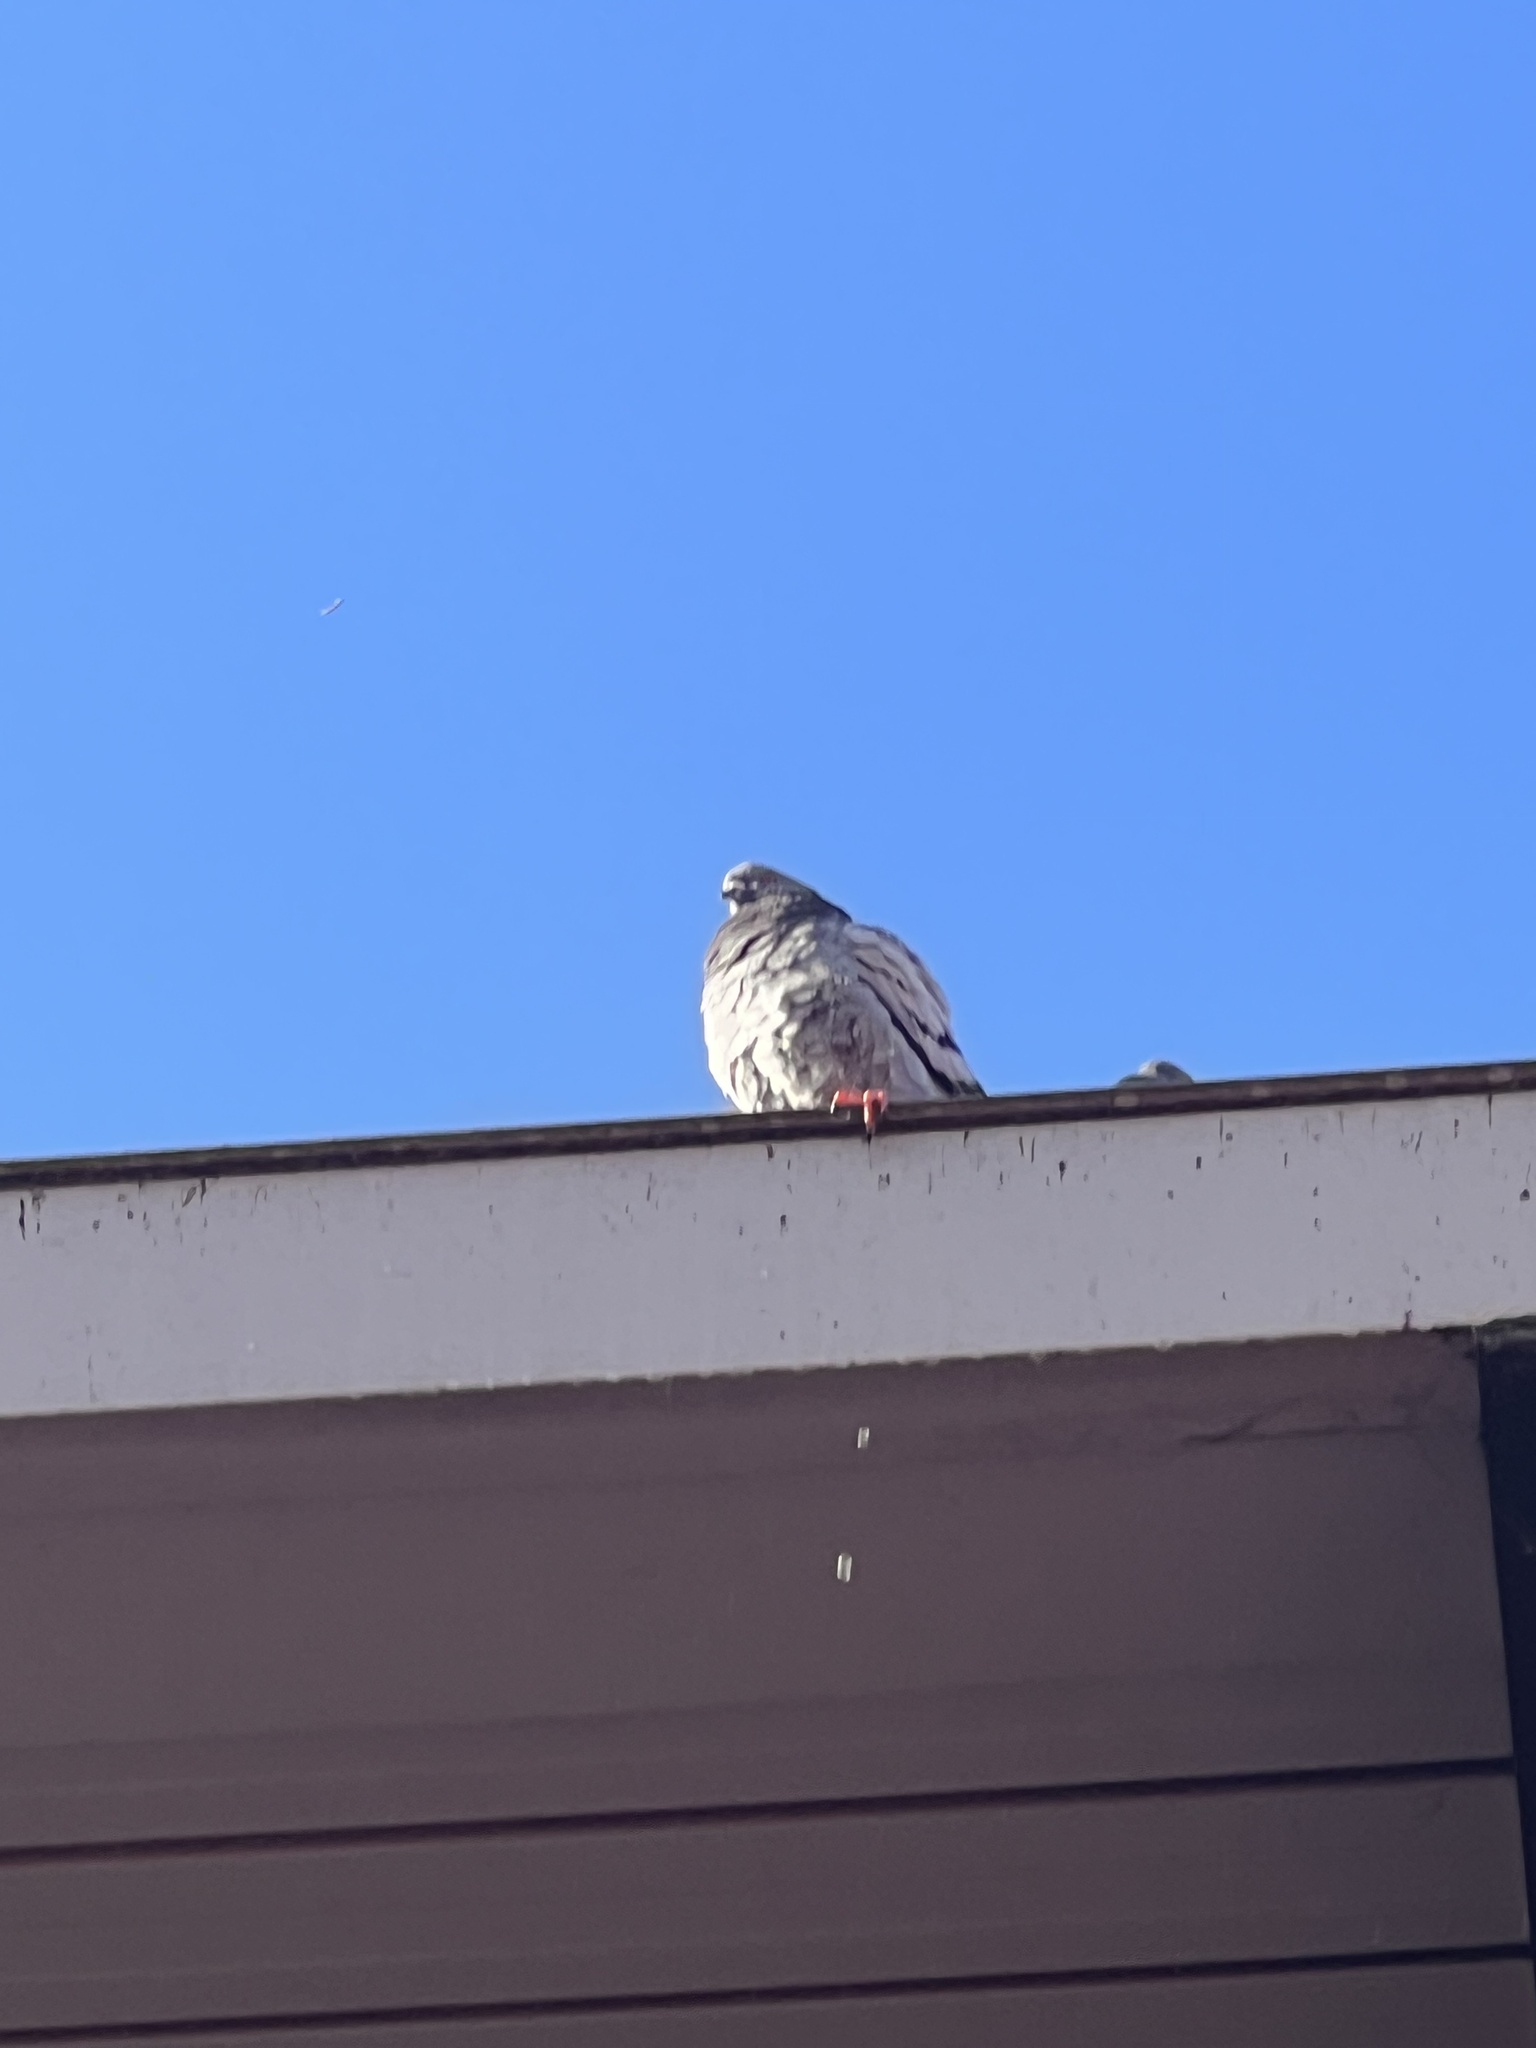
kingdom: Animalia
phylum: Chordata
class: Aves
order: Columbiformes
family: Columbidae
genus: Columba
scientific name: Columba livia
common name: Rock pigeon
